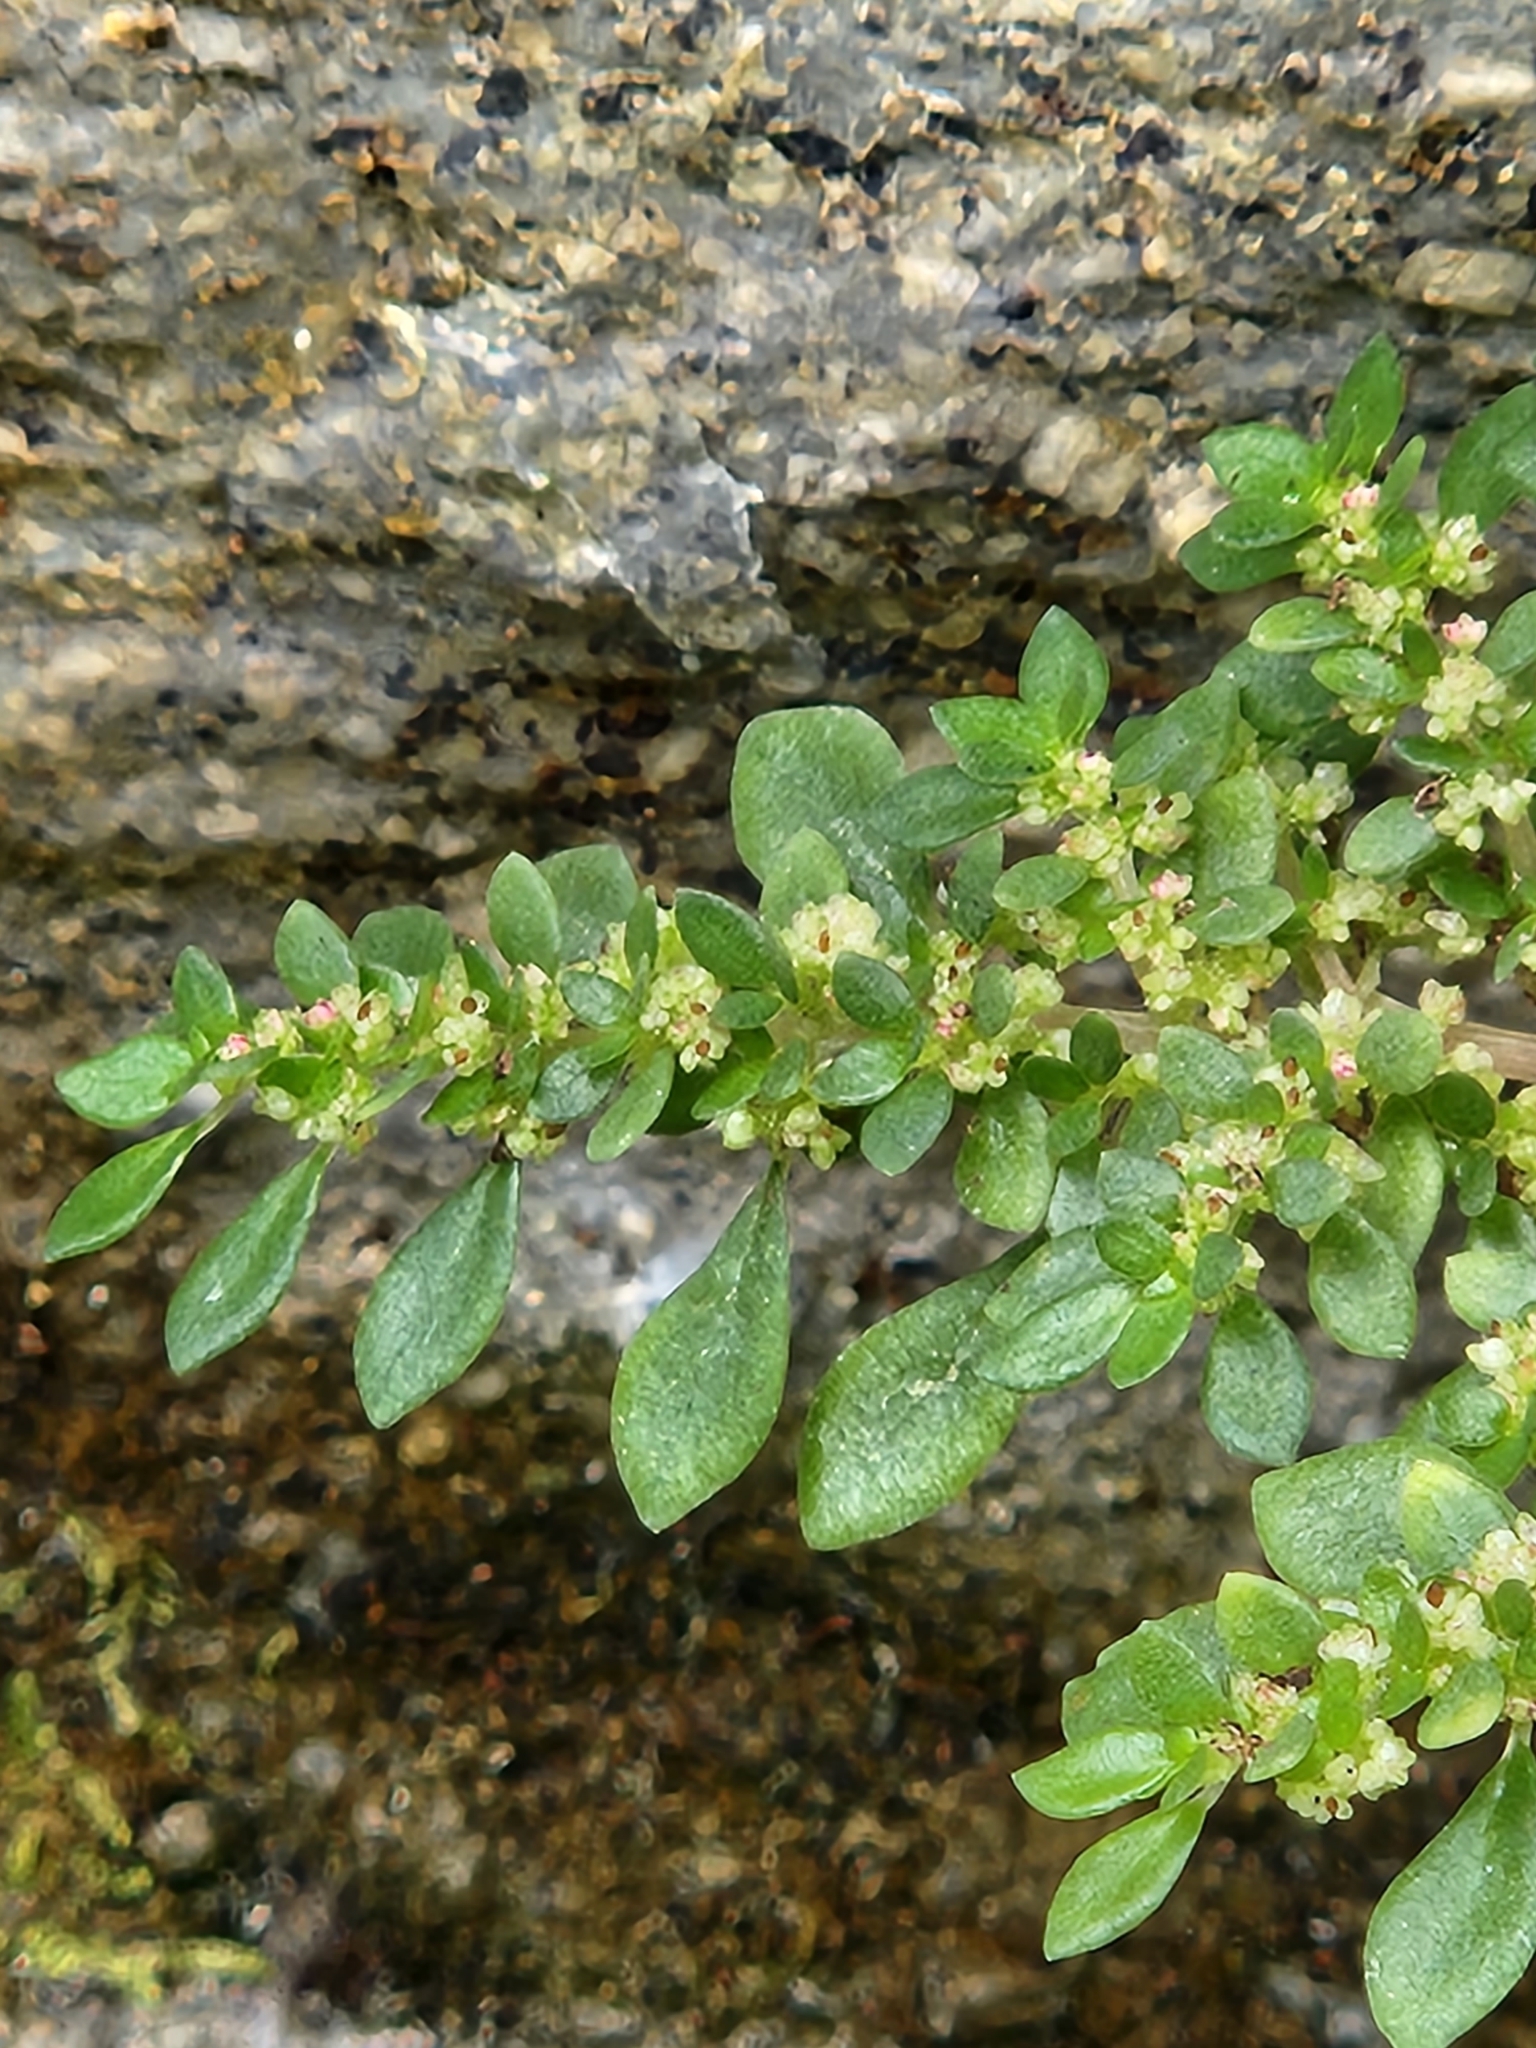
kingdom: Plantae
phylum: Tracheophyta
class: Magnoliopsida
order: Rosales
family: Urticaceae
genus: Pilea
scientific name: Pilea microphylla
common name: Artillery-plant
